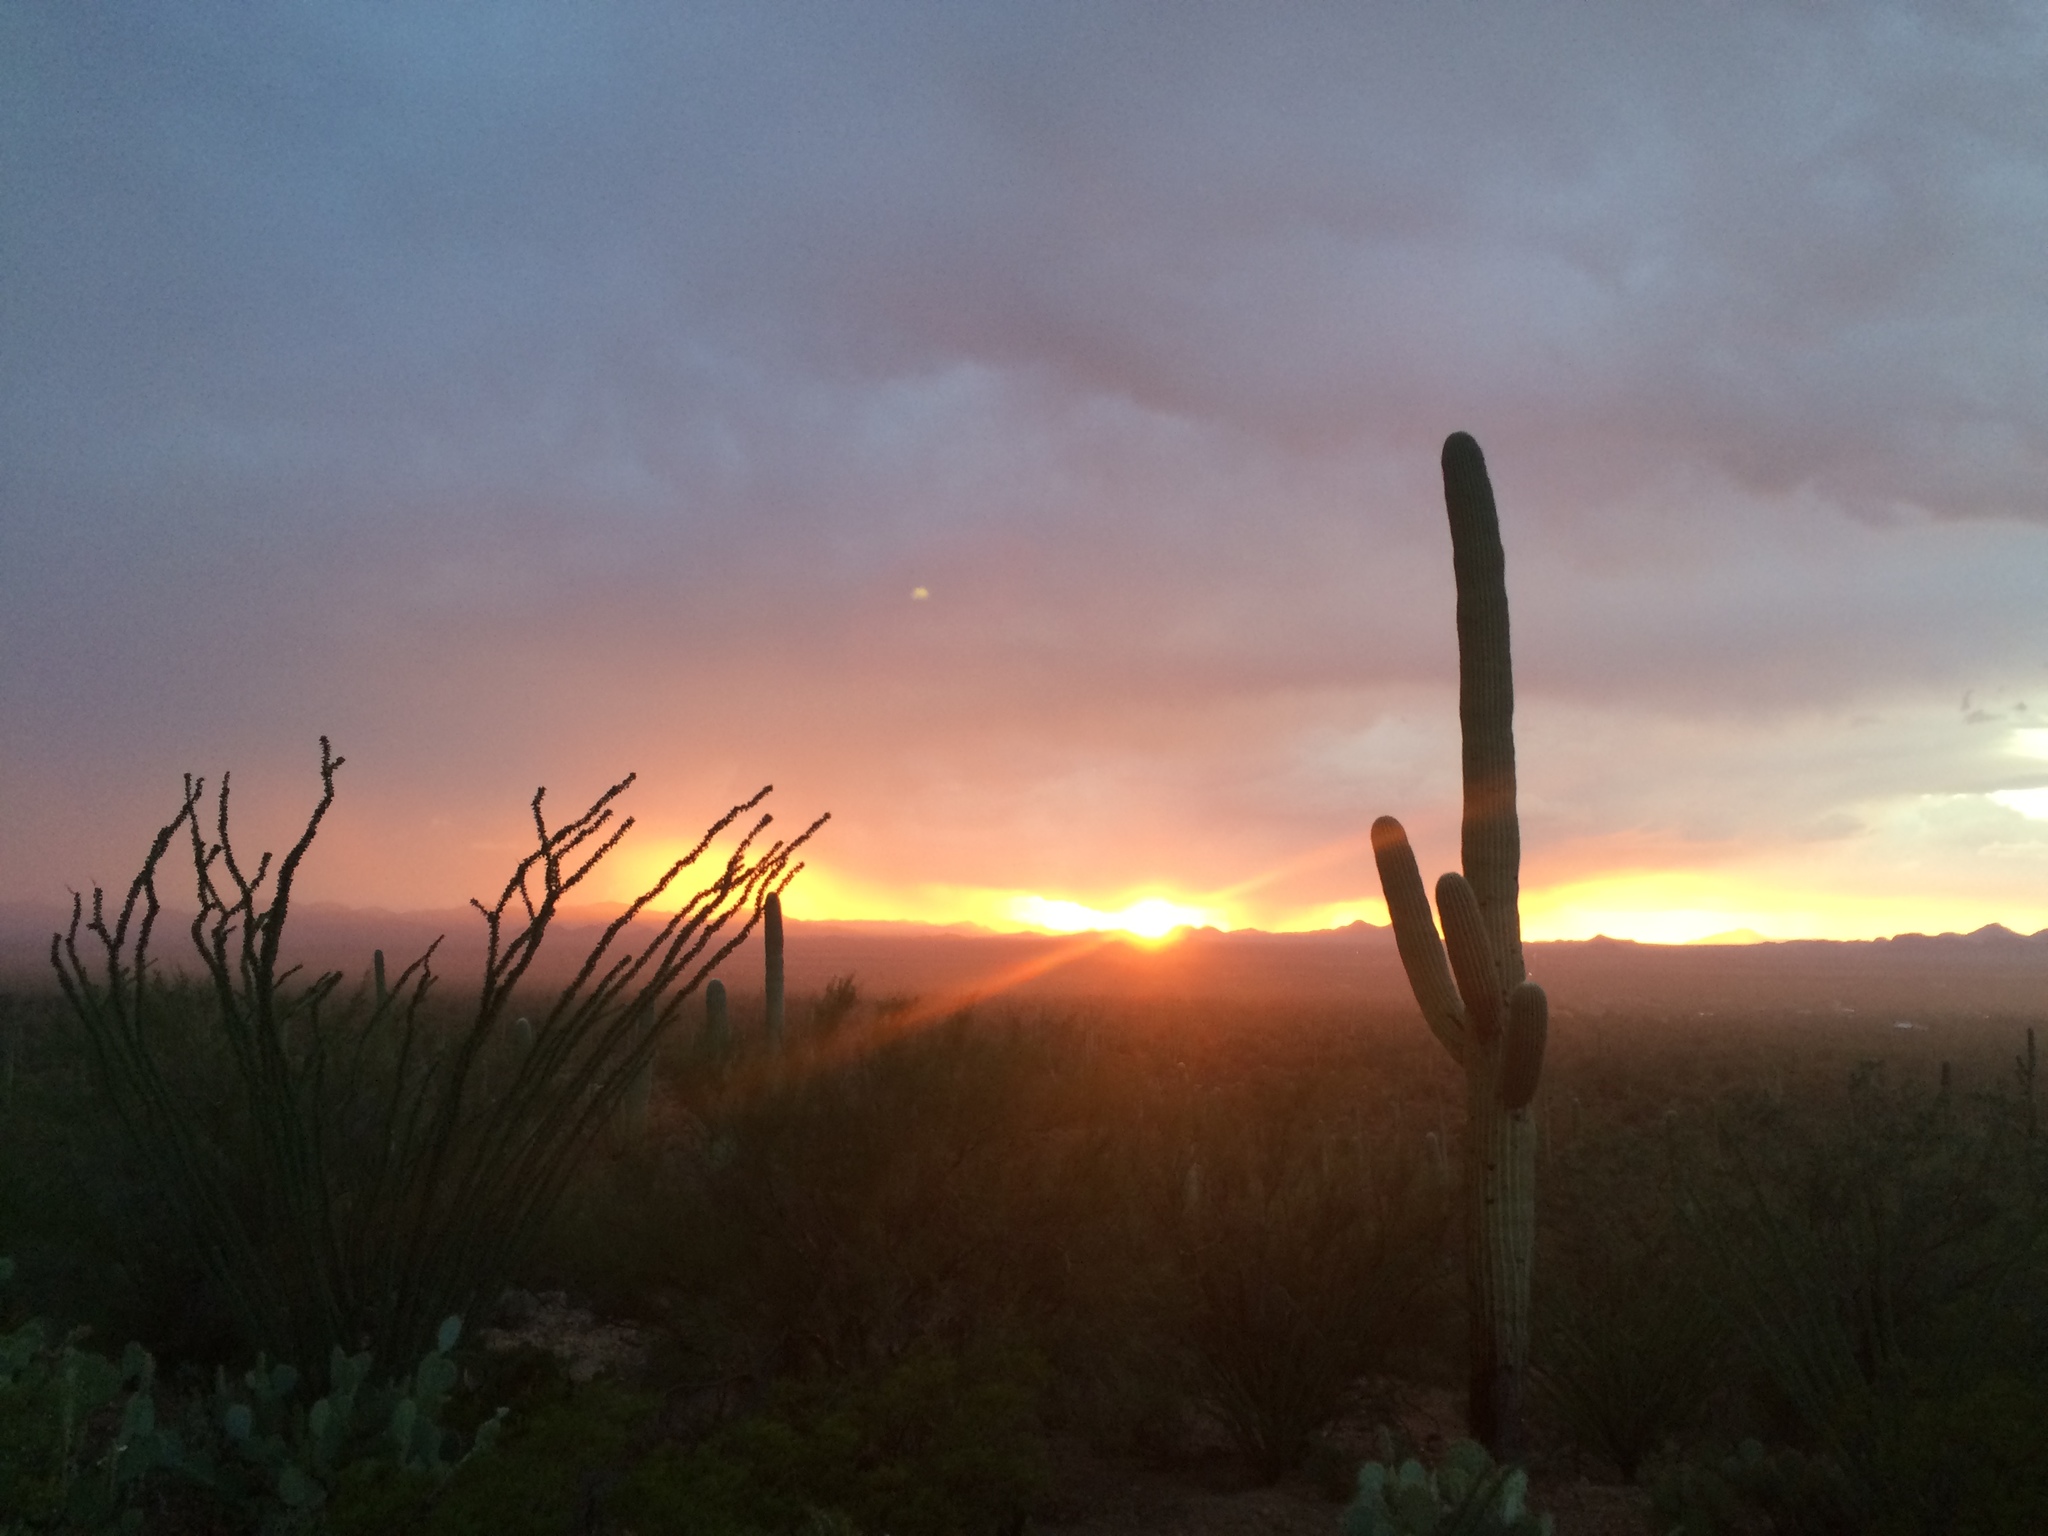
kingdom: Plantae
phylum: Tracheophyta
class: Magnoliopsida
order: Caryophyllales
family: Cactaceae
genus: Carnegiea
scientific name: Carnegiea gigantea
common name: Saguaro
